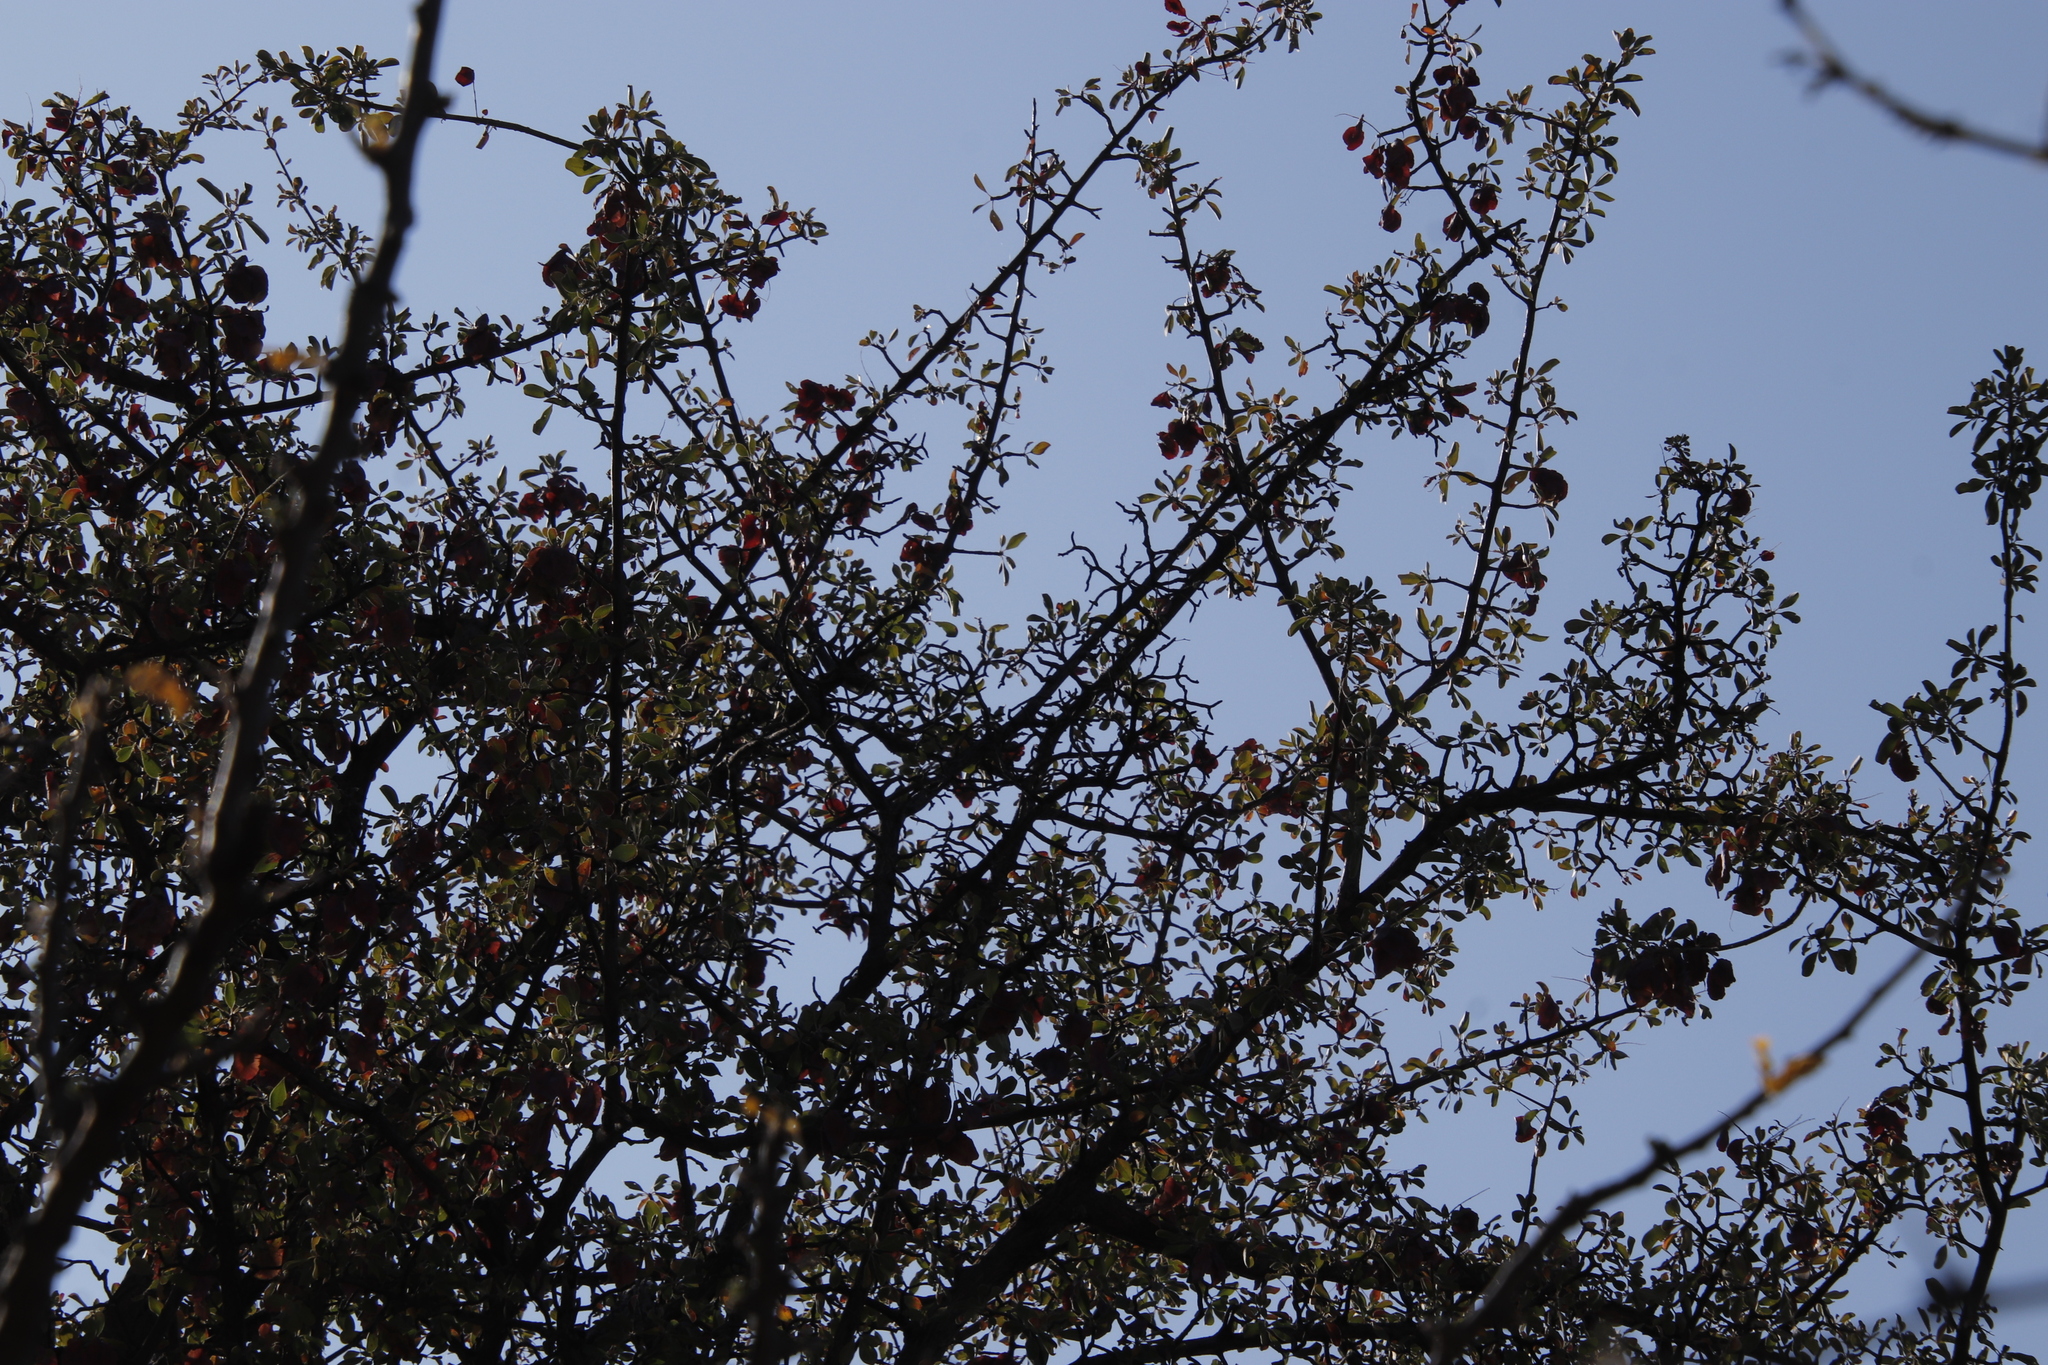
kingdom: Plantae
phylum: Tracheophyta
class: Magnoliopsida
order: Myrtales
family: Combretaceae
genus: Terminalia
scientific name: Terminalia prunioides
